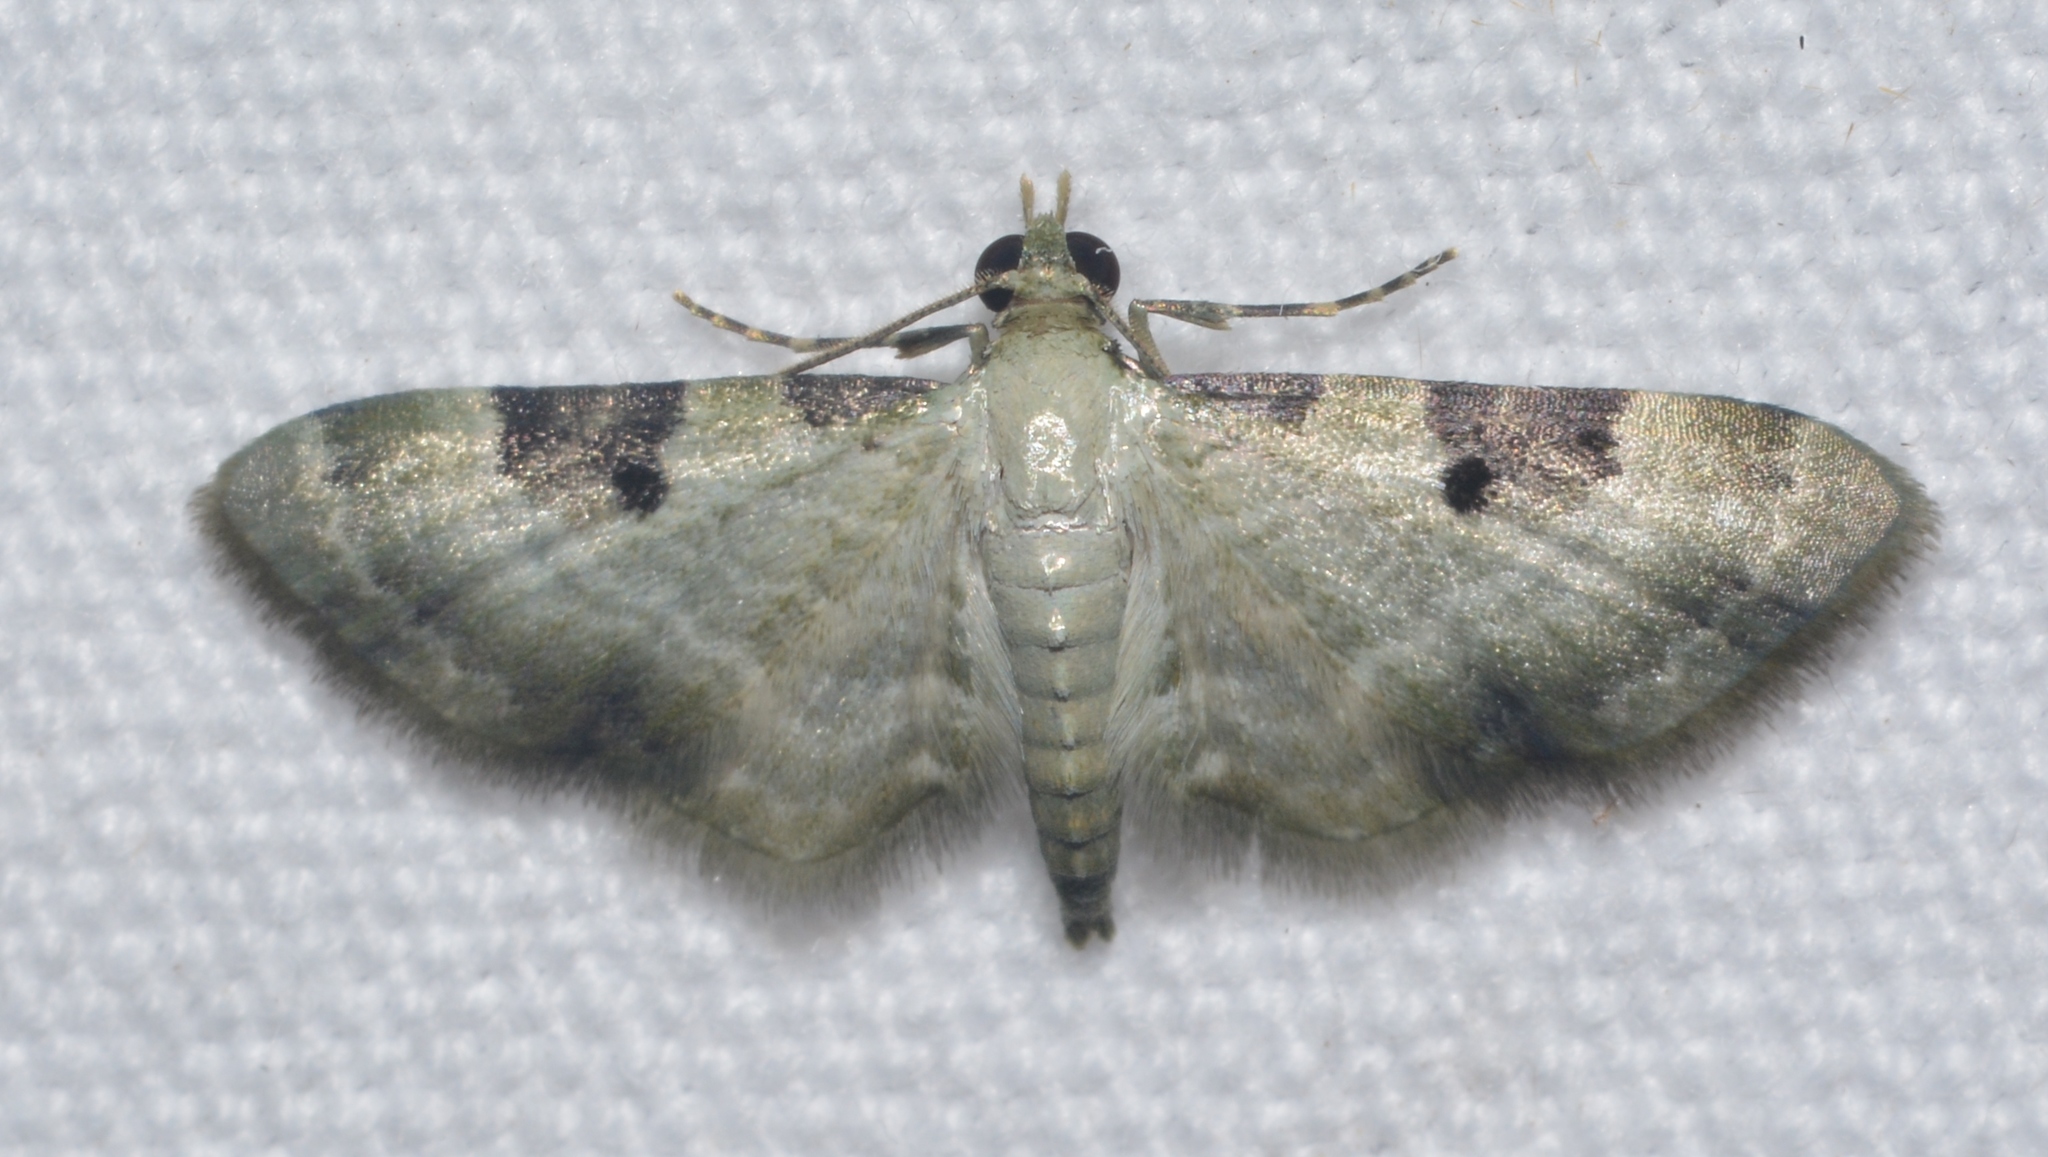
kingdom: Animalia
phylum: Arthropoda
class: Insecta
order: Lepidoptera
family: Geometridae
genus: Eupithecia
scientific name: Eupithecia tenera
